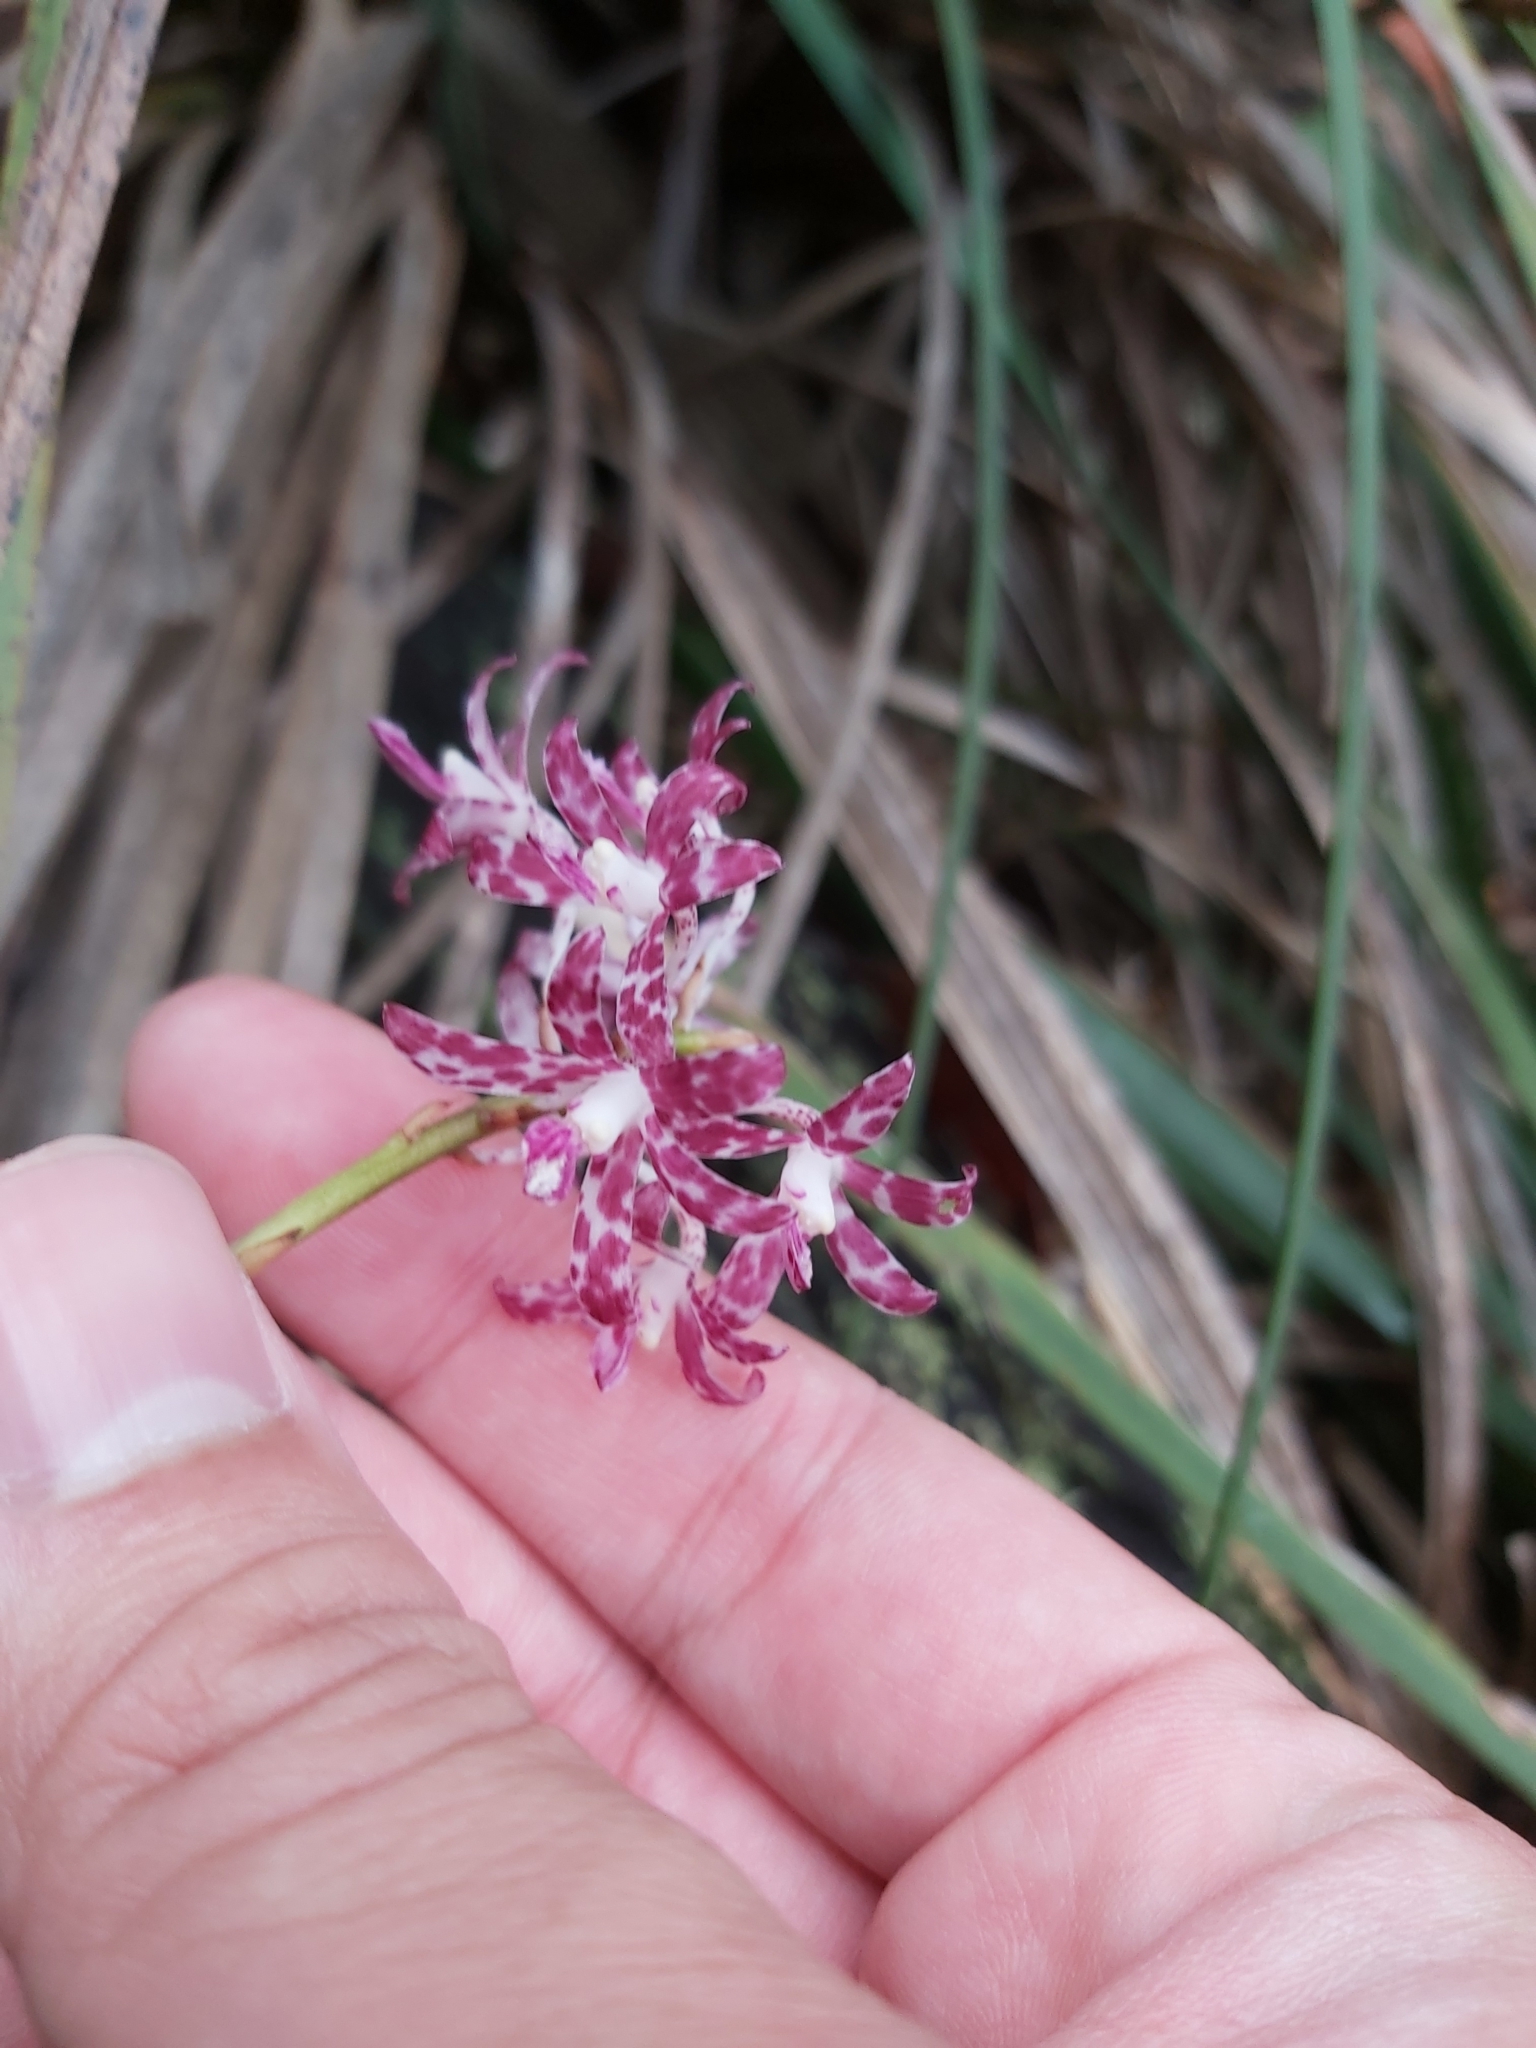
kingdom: Plantae
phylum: Tracheophyta
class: Liliopsida
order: Asparagales
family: Orchidaceae
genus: Dipodium
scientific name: Dipodium variegatum
